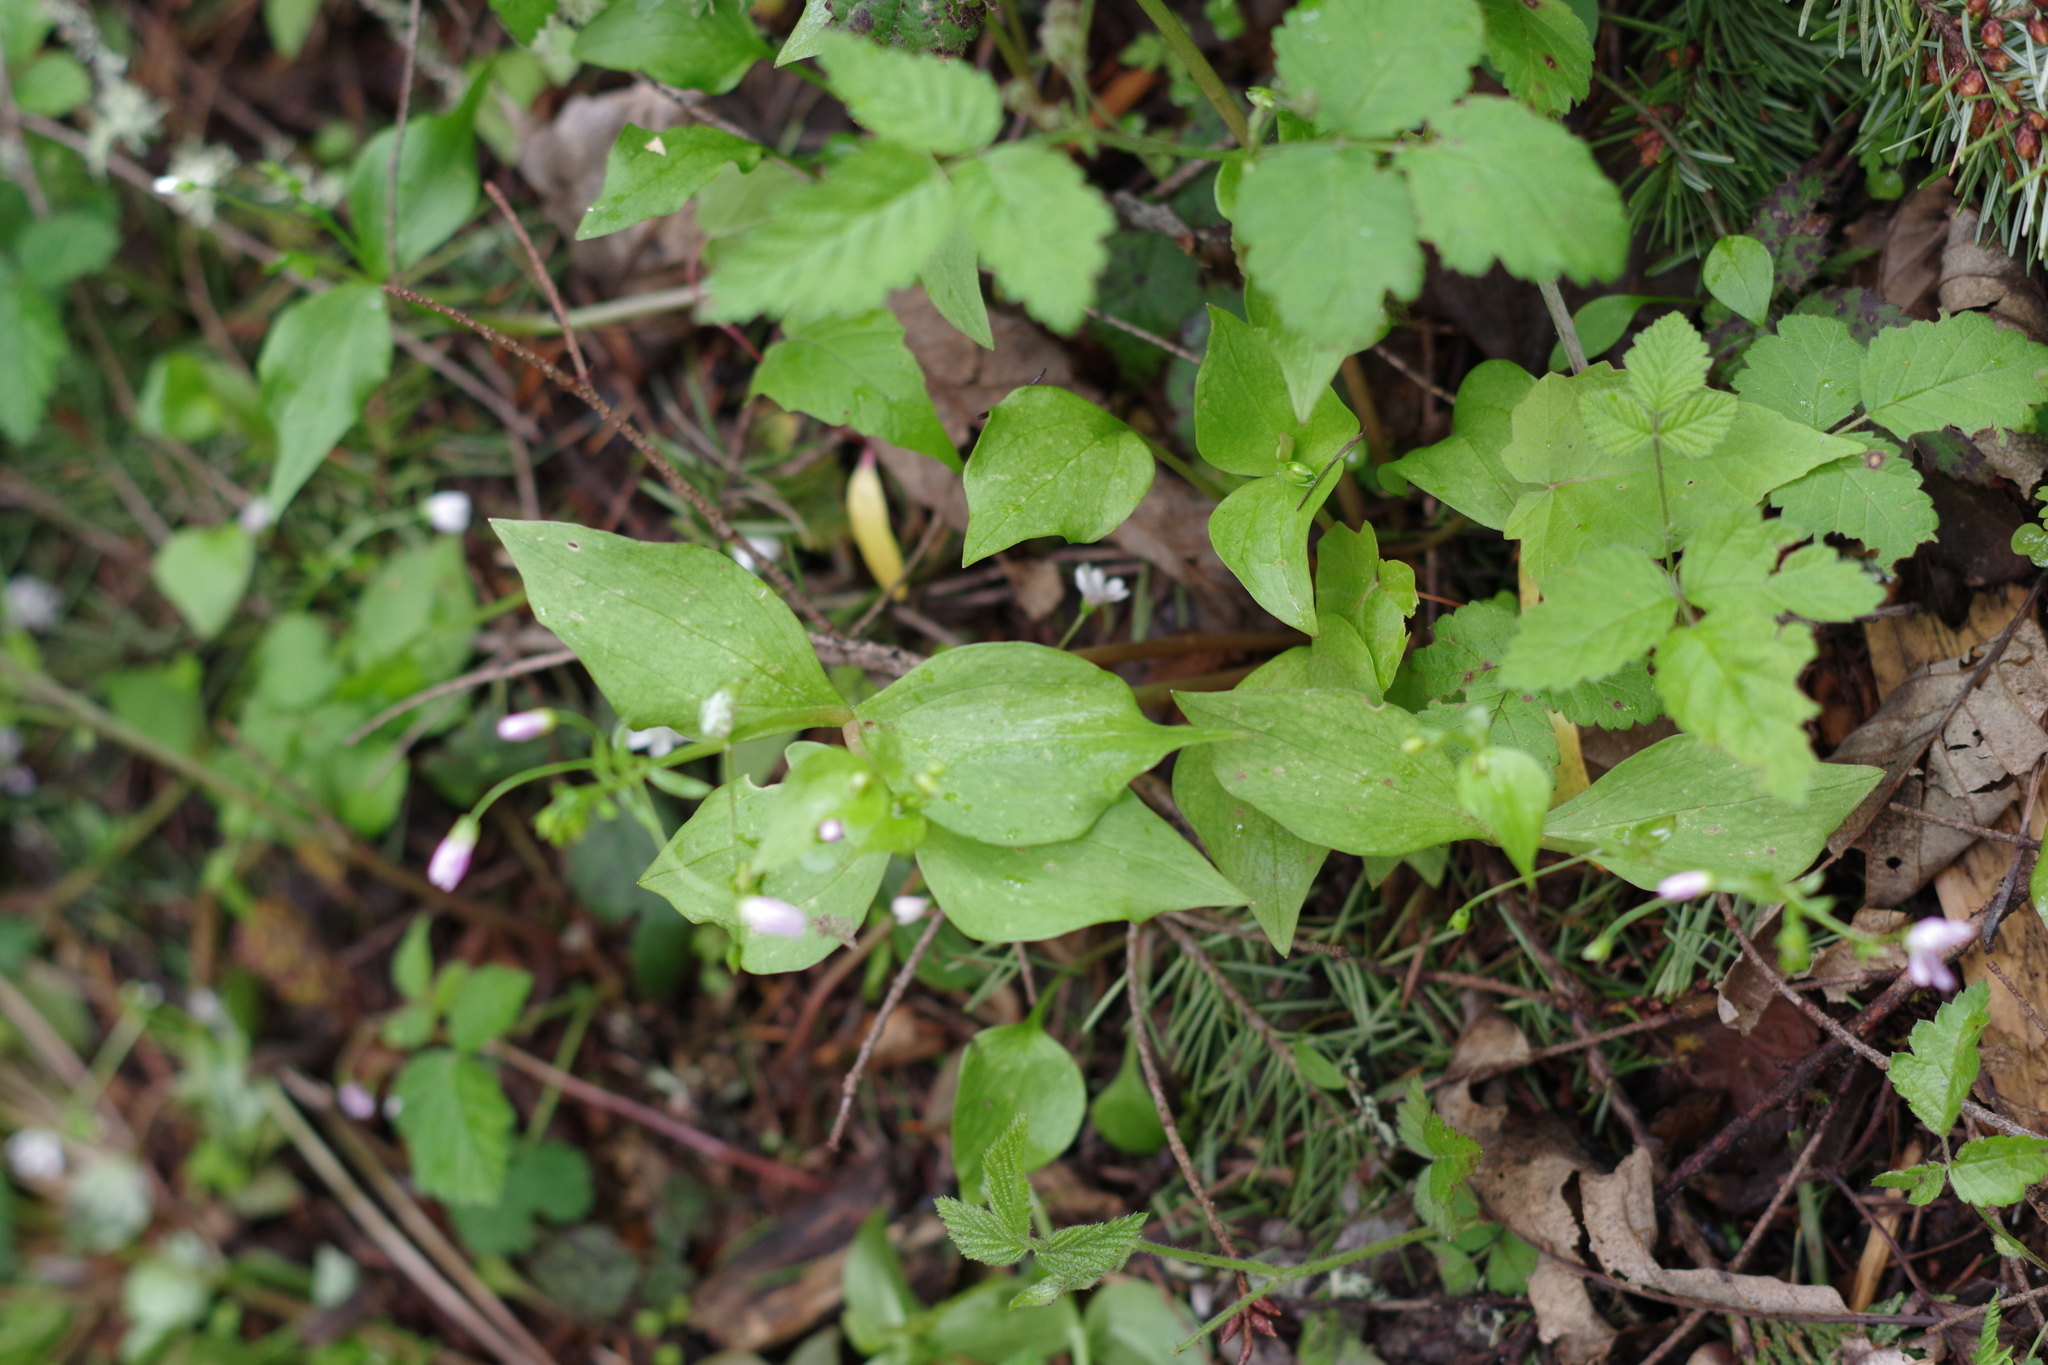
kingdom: Plantae
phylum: Tracheophyta
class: Magnoliopsida
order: Caryophyllales
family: Montiaceae
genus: Claytonia
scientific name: Claytonia sibirica
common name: Pink purslane
